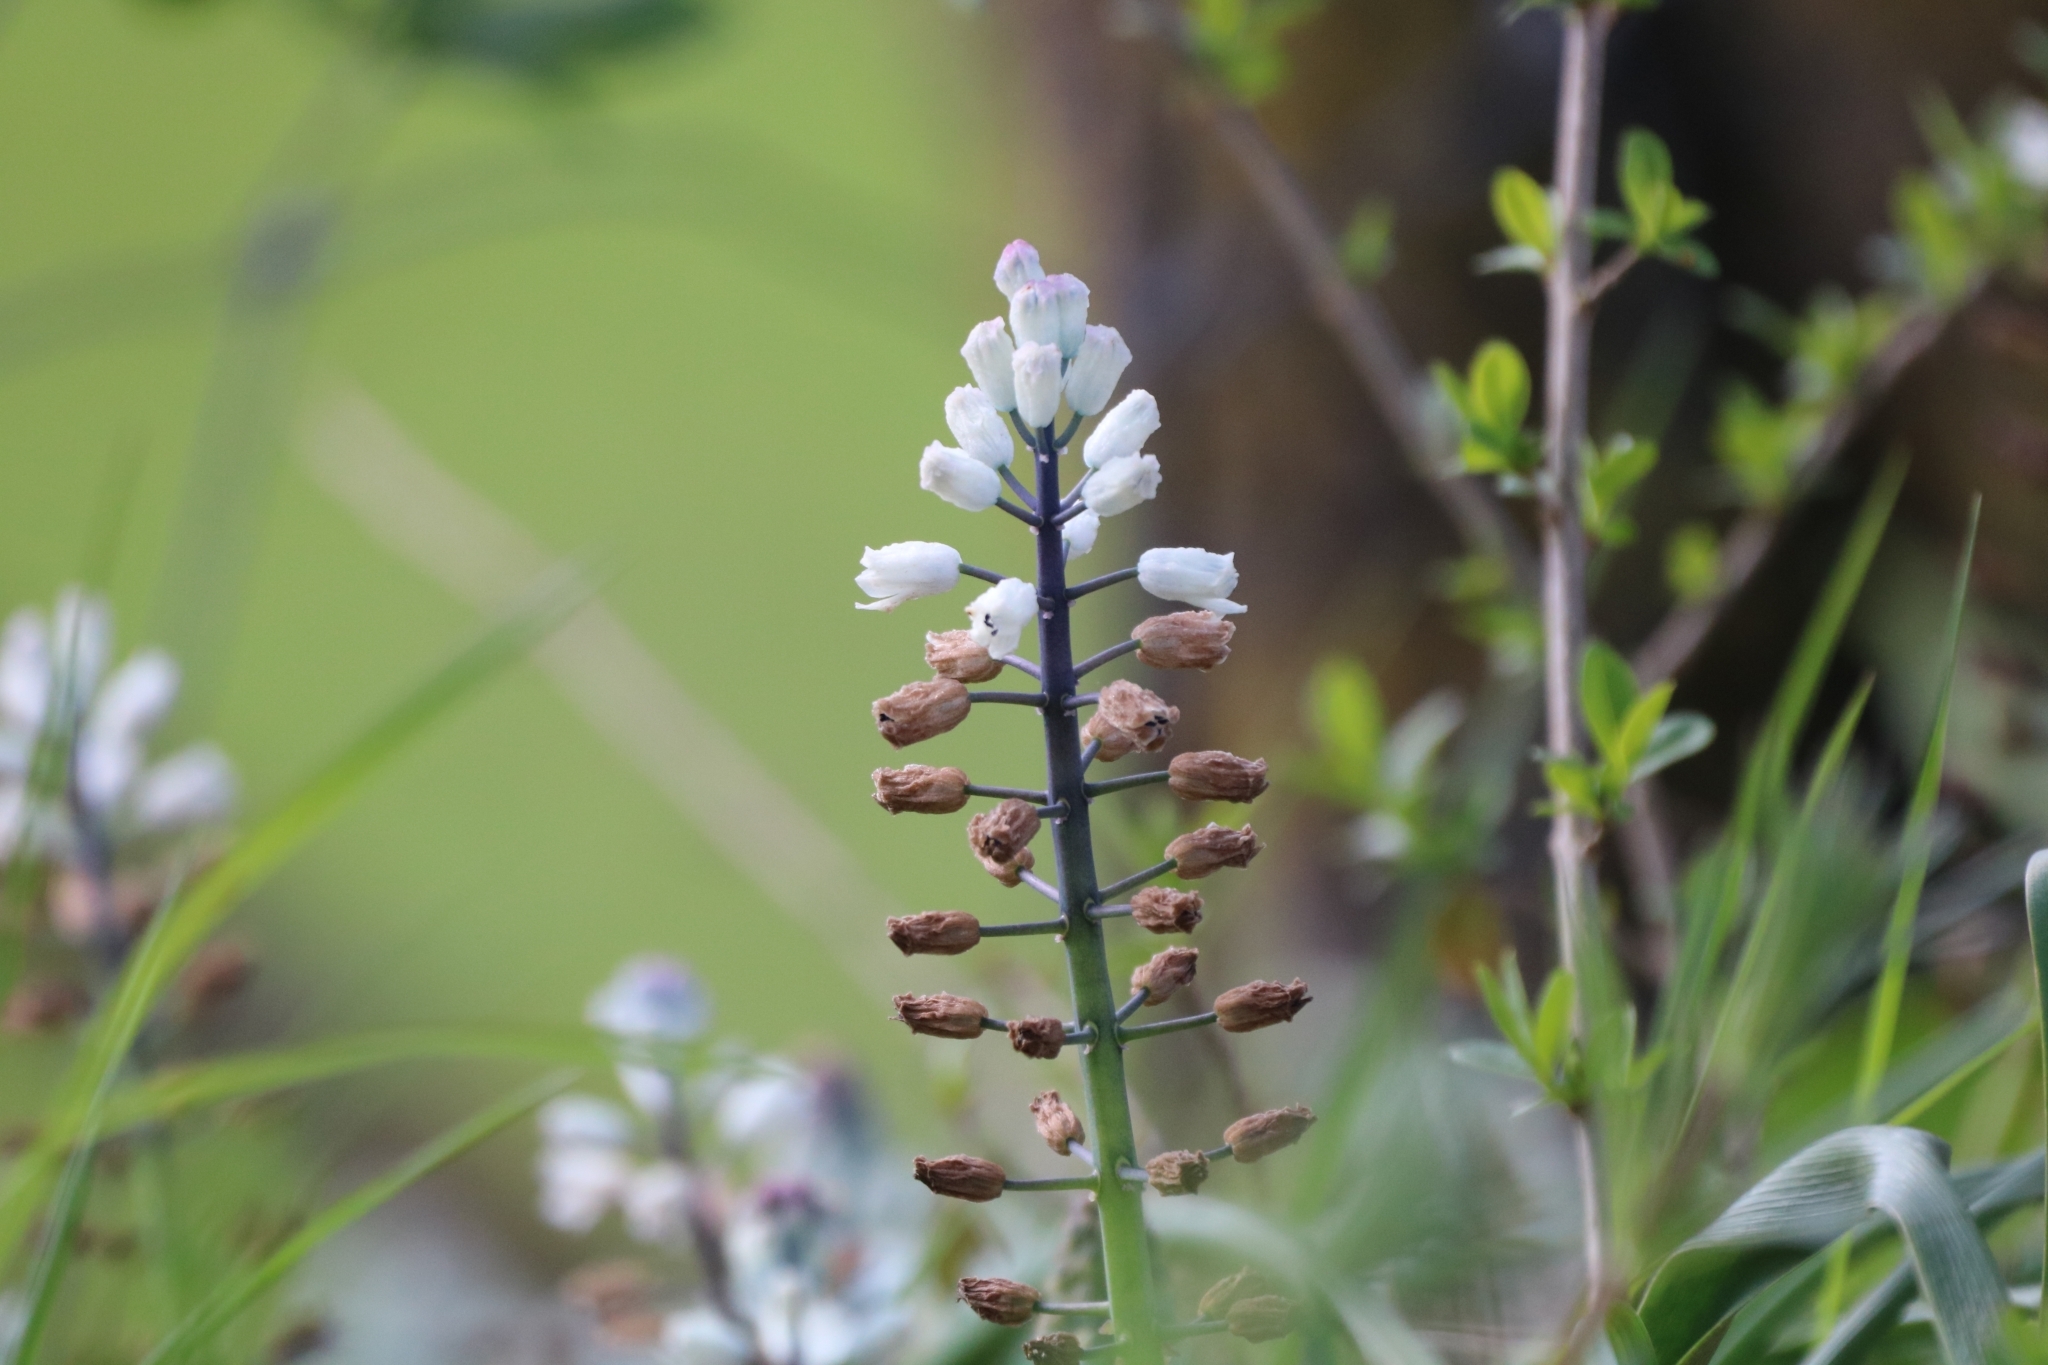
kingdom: Plantae
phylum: Tracheophyta
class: Liliopsida
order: Asparagales
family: Asparagaceae
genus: Bellevalia
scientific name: Bellevalia romana
